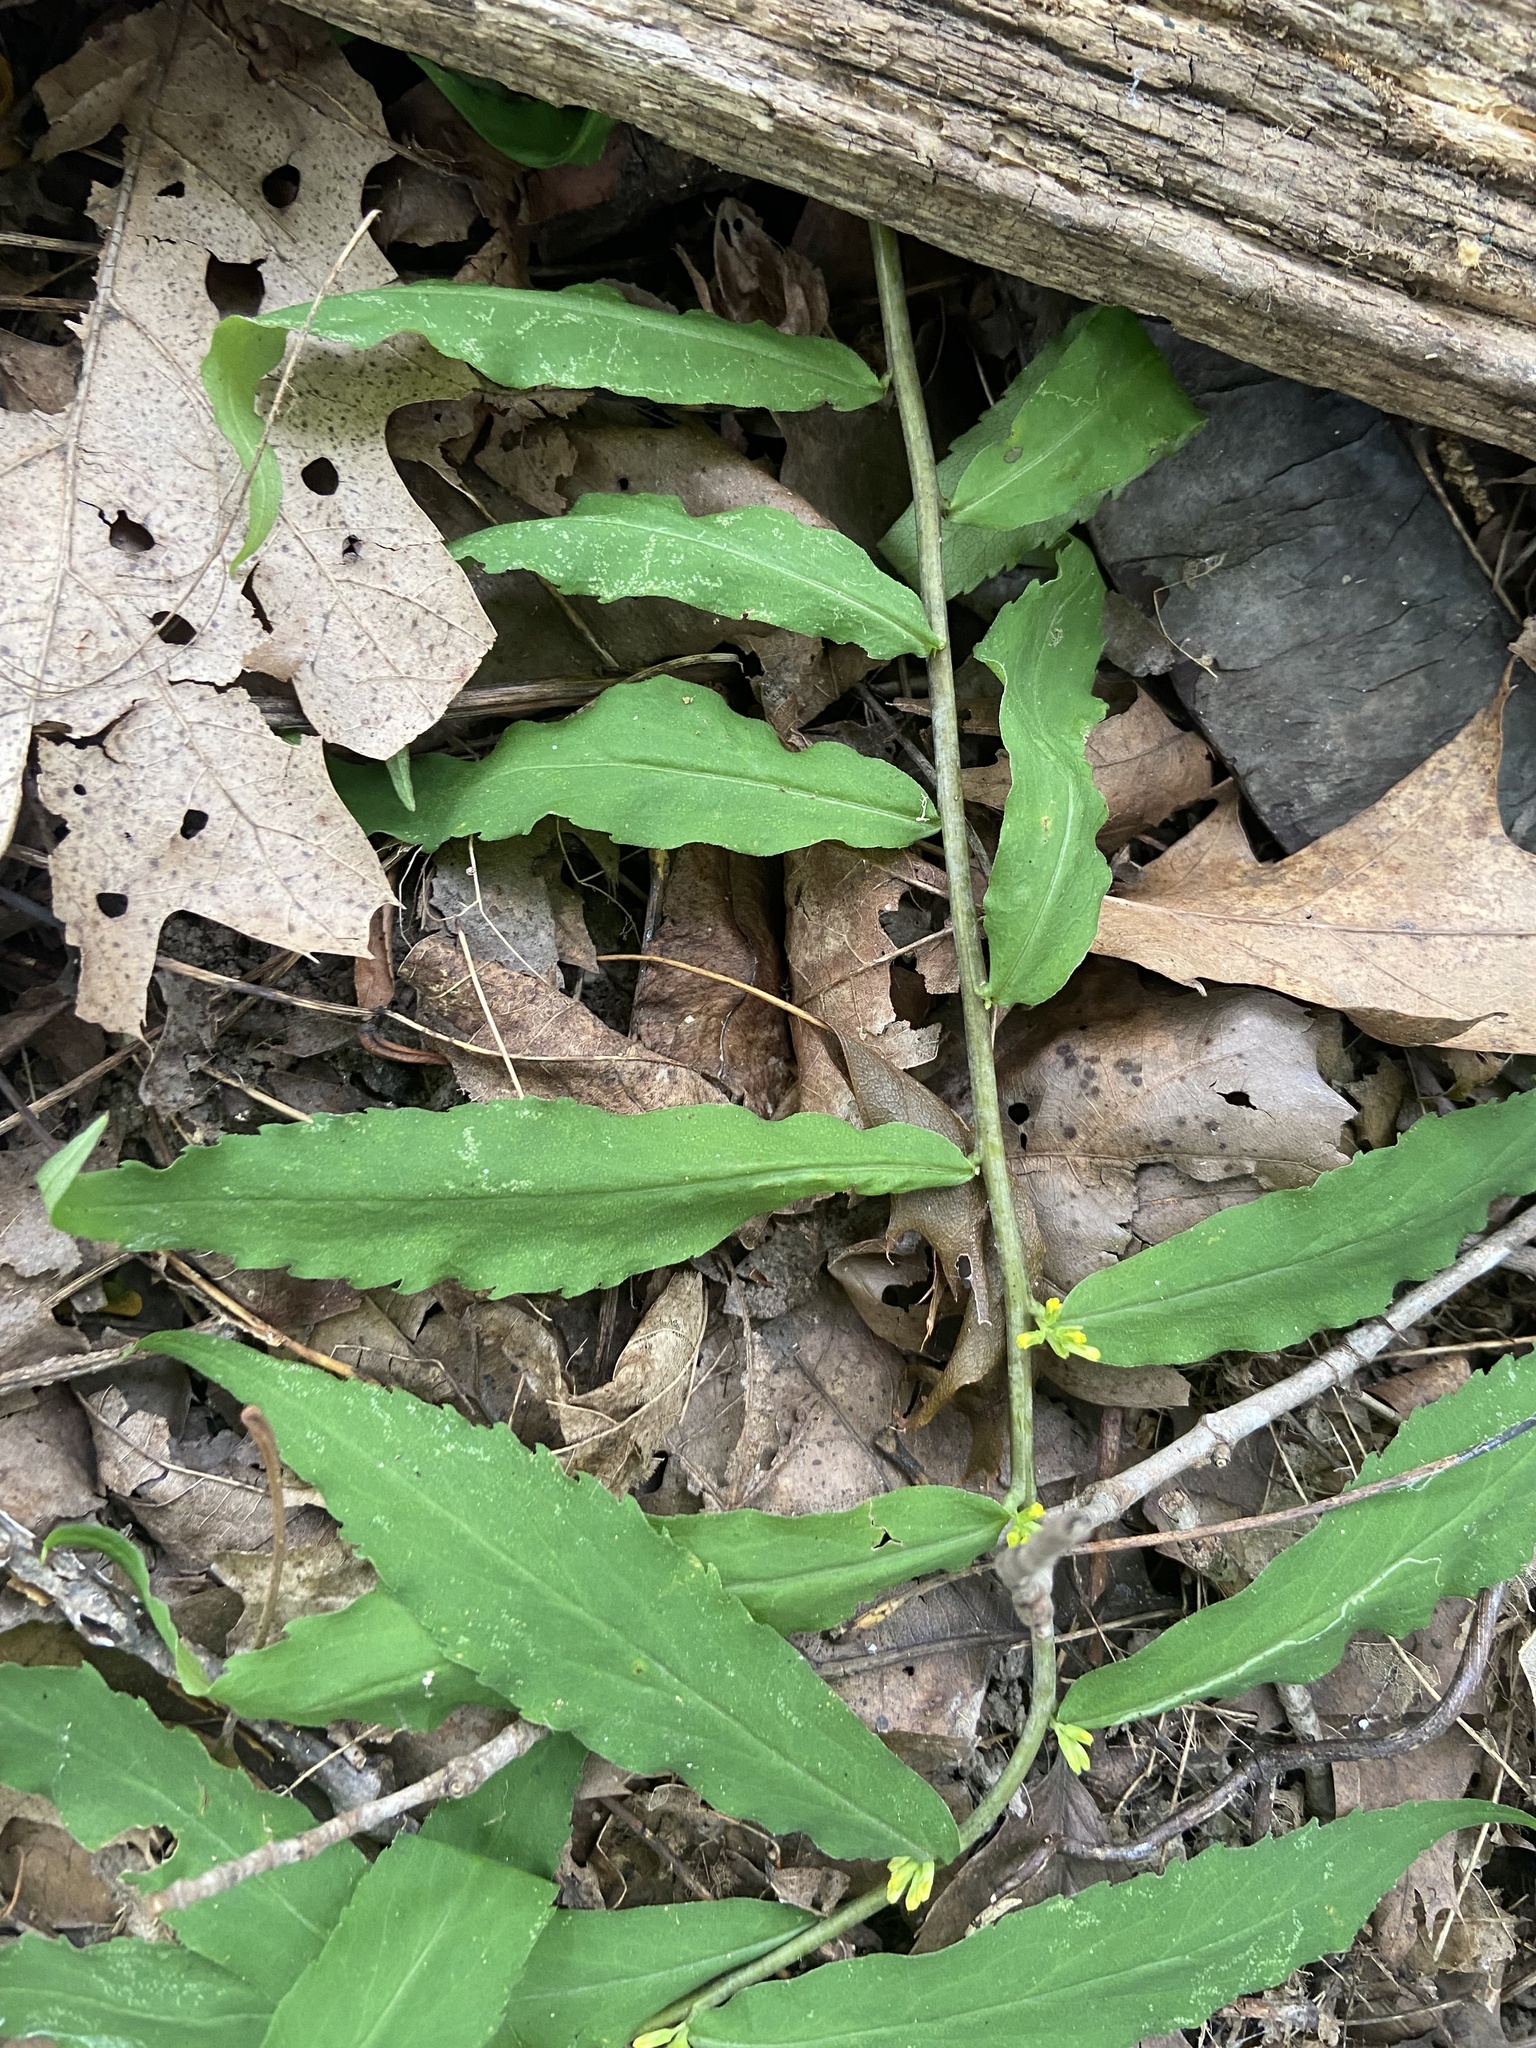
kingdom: Plantae
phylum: Tracheophyta
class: Magnoliopsida
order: Asterales
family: Asteraceae
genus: Solidago
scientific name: Solidago caesia
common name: Woodland goldenrod
